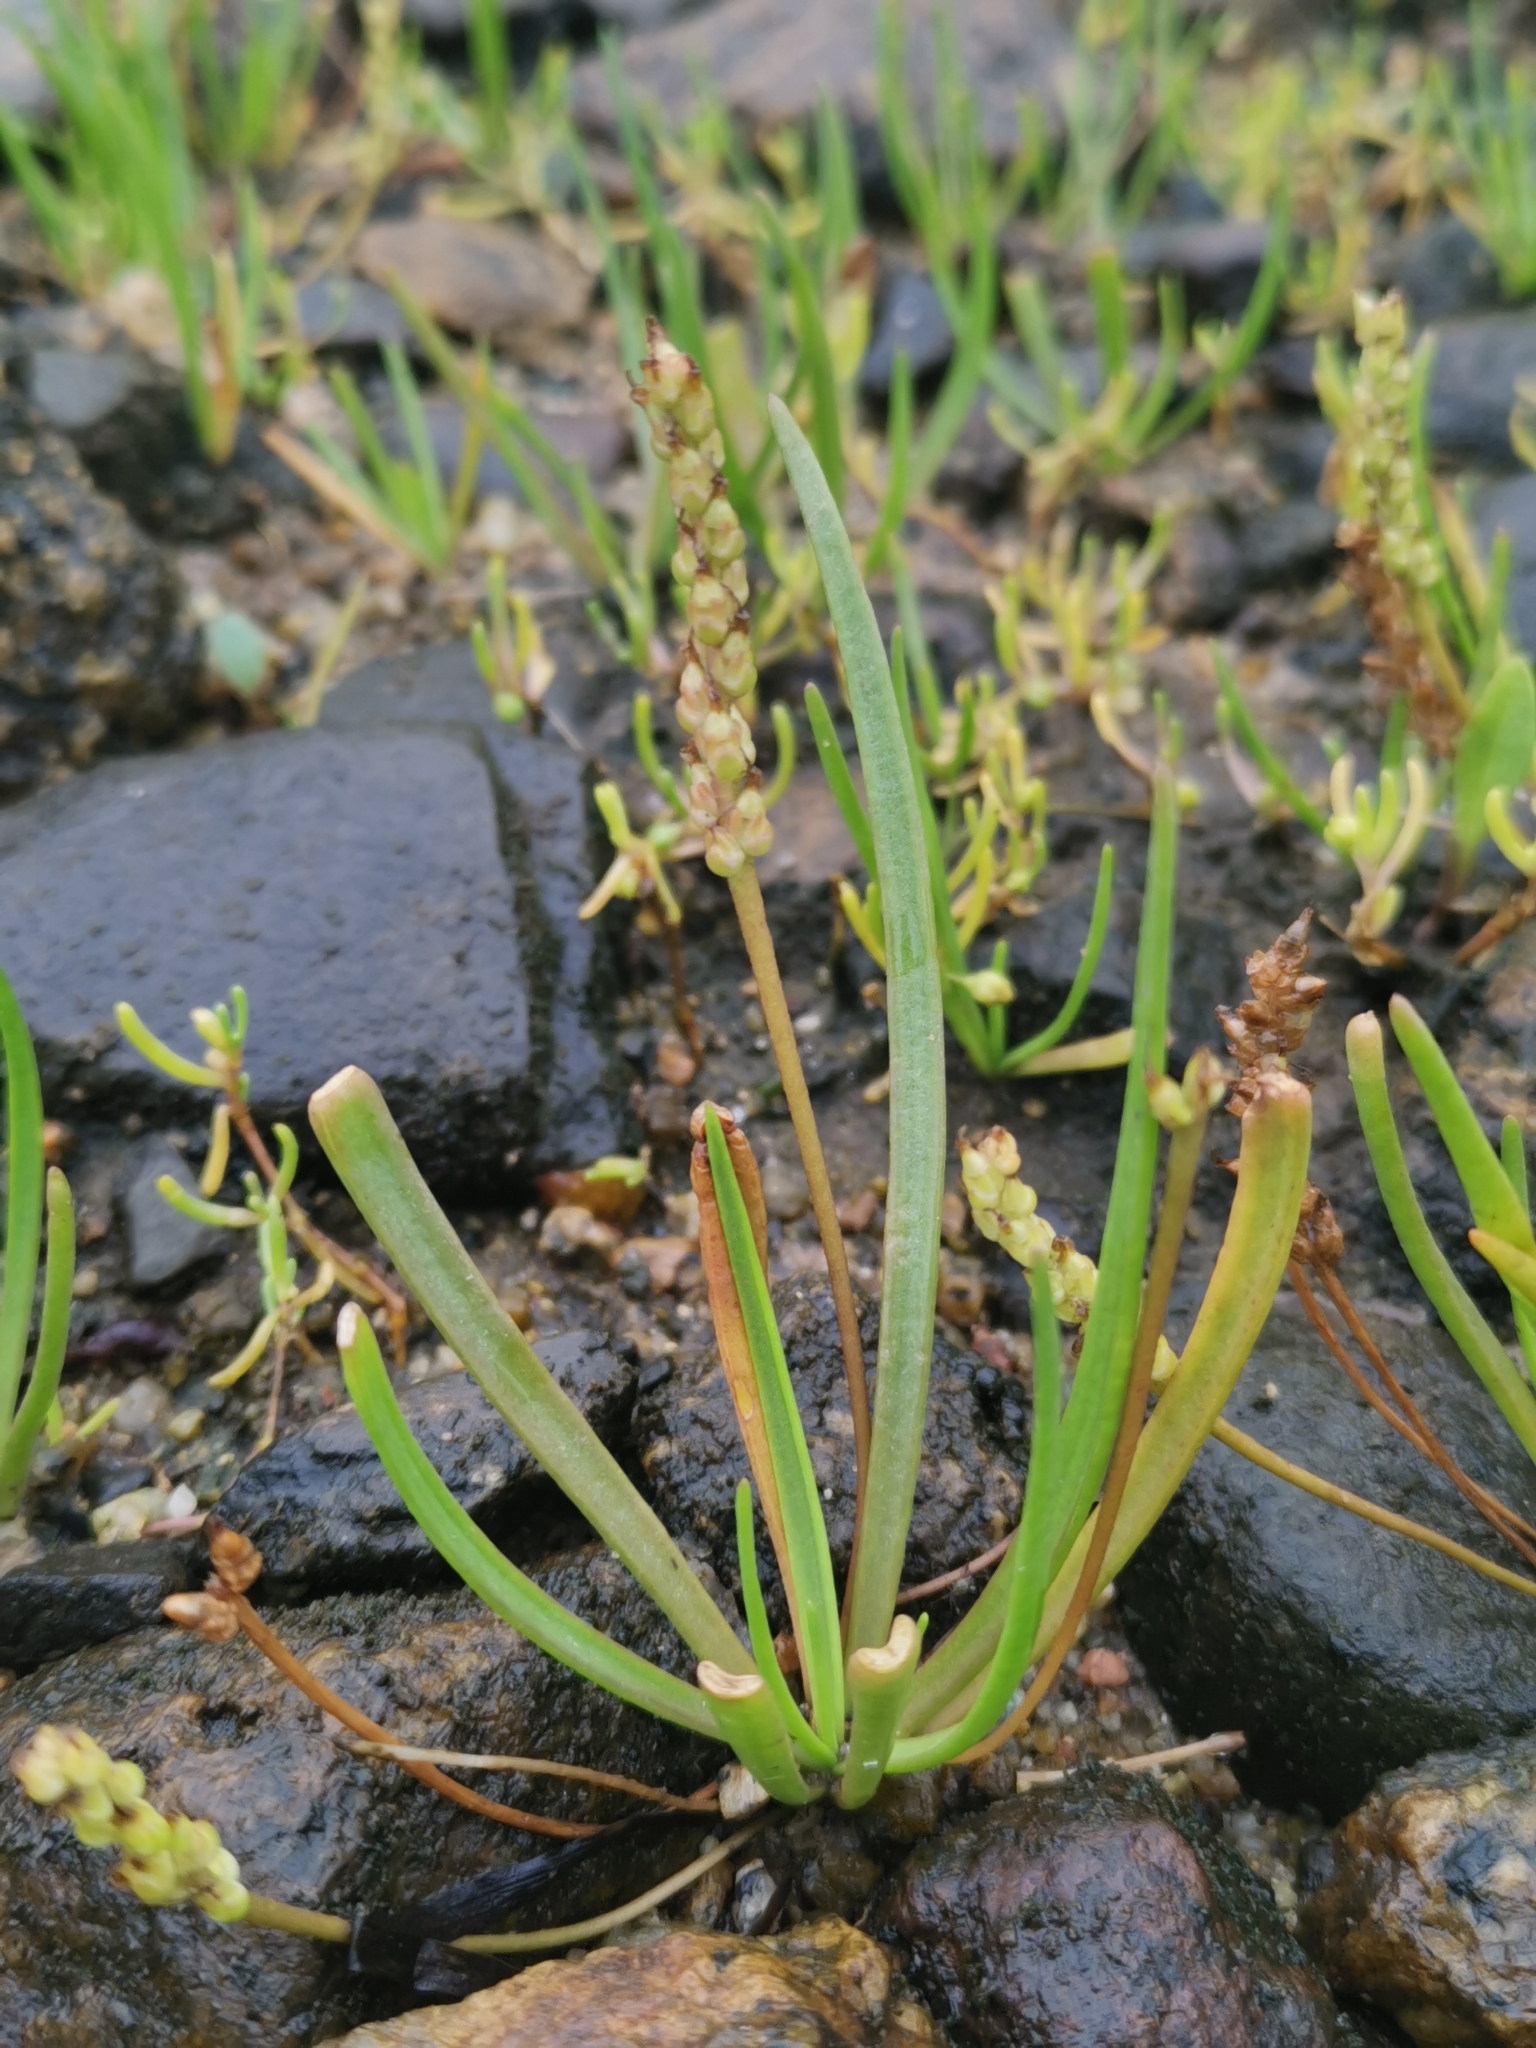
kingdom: Plantae
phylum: Tracheophyta
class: Magnoliopsida
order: Lamiales
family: Plantaginaceae
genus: Plantago
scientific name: Plantago maritima
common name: Sea plantain
